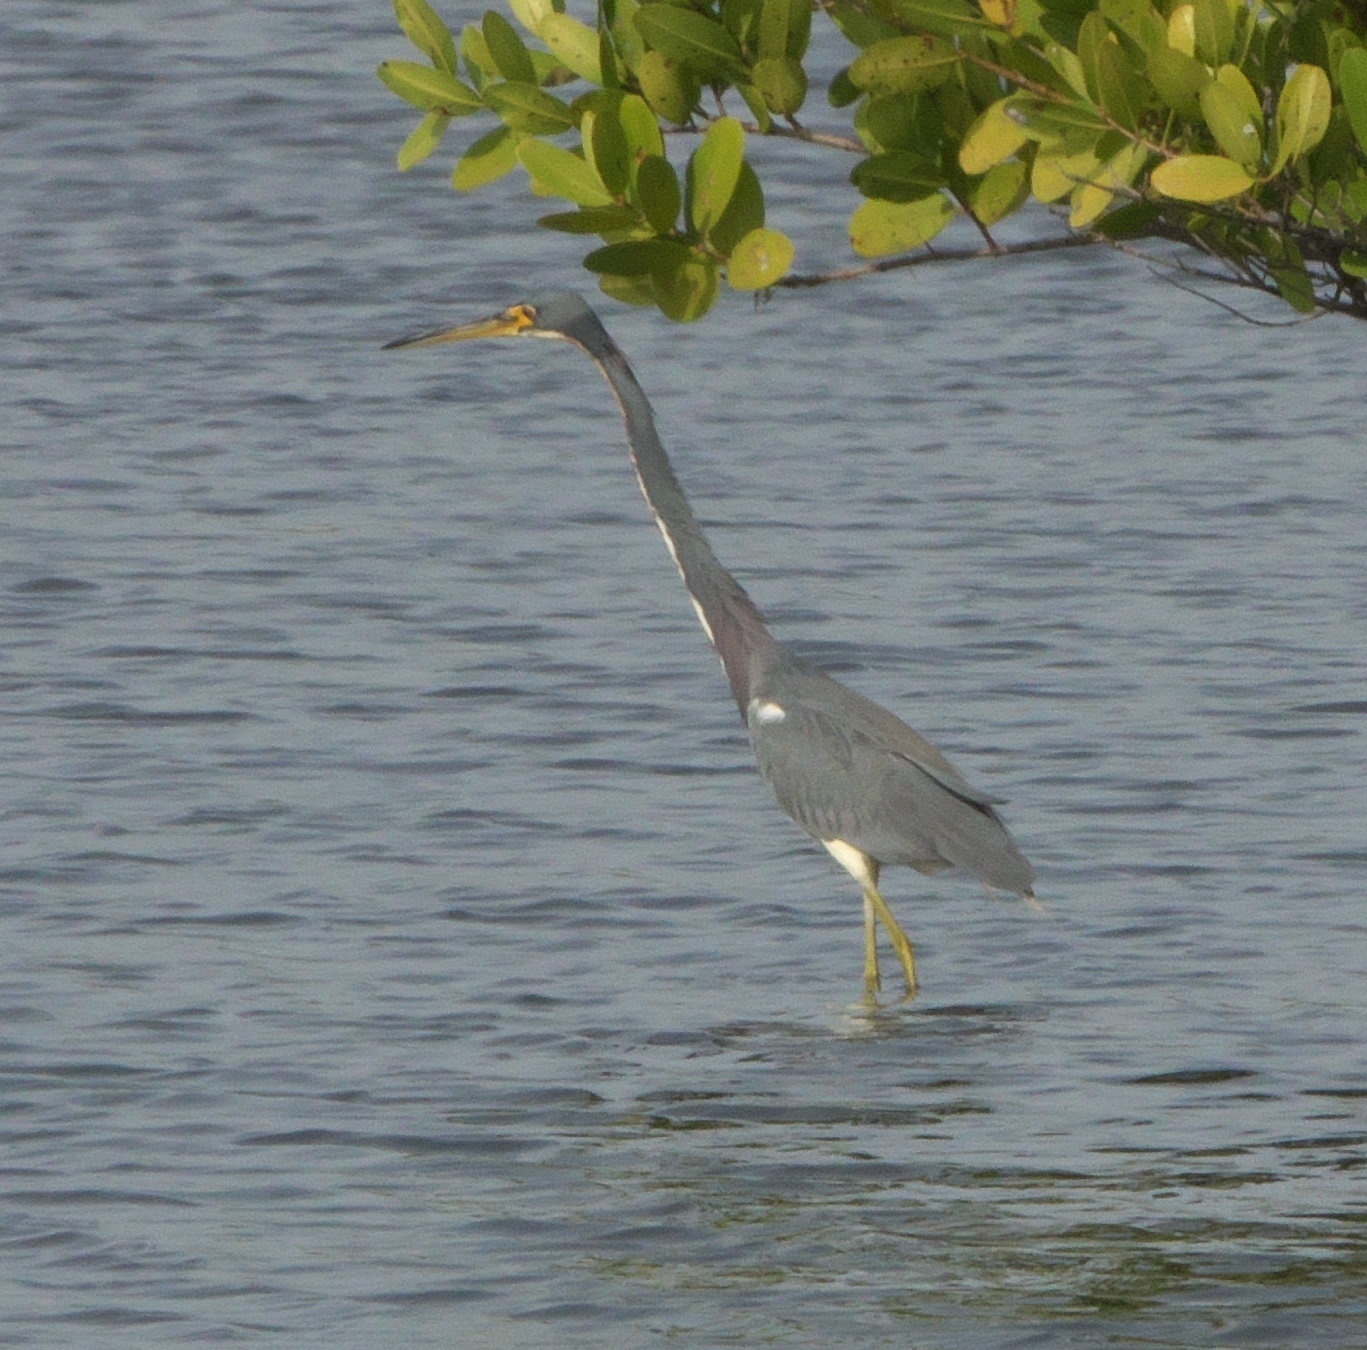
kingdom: Animalia
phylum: Chordata
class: Aves
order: Pelecaniformes
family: Ardeidae
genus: Egretta
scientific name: Egretta tricolor
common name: Tricolored heron
